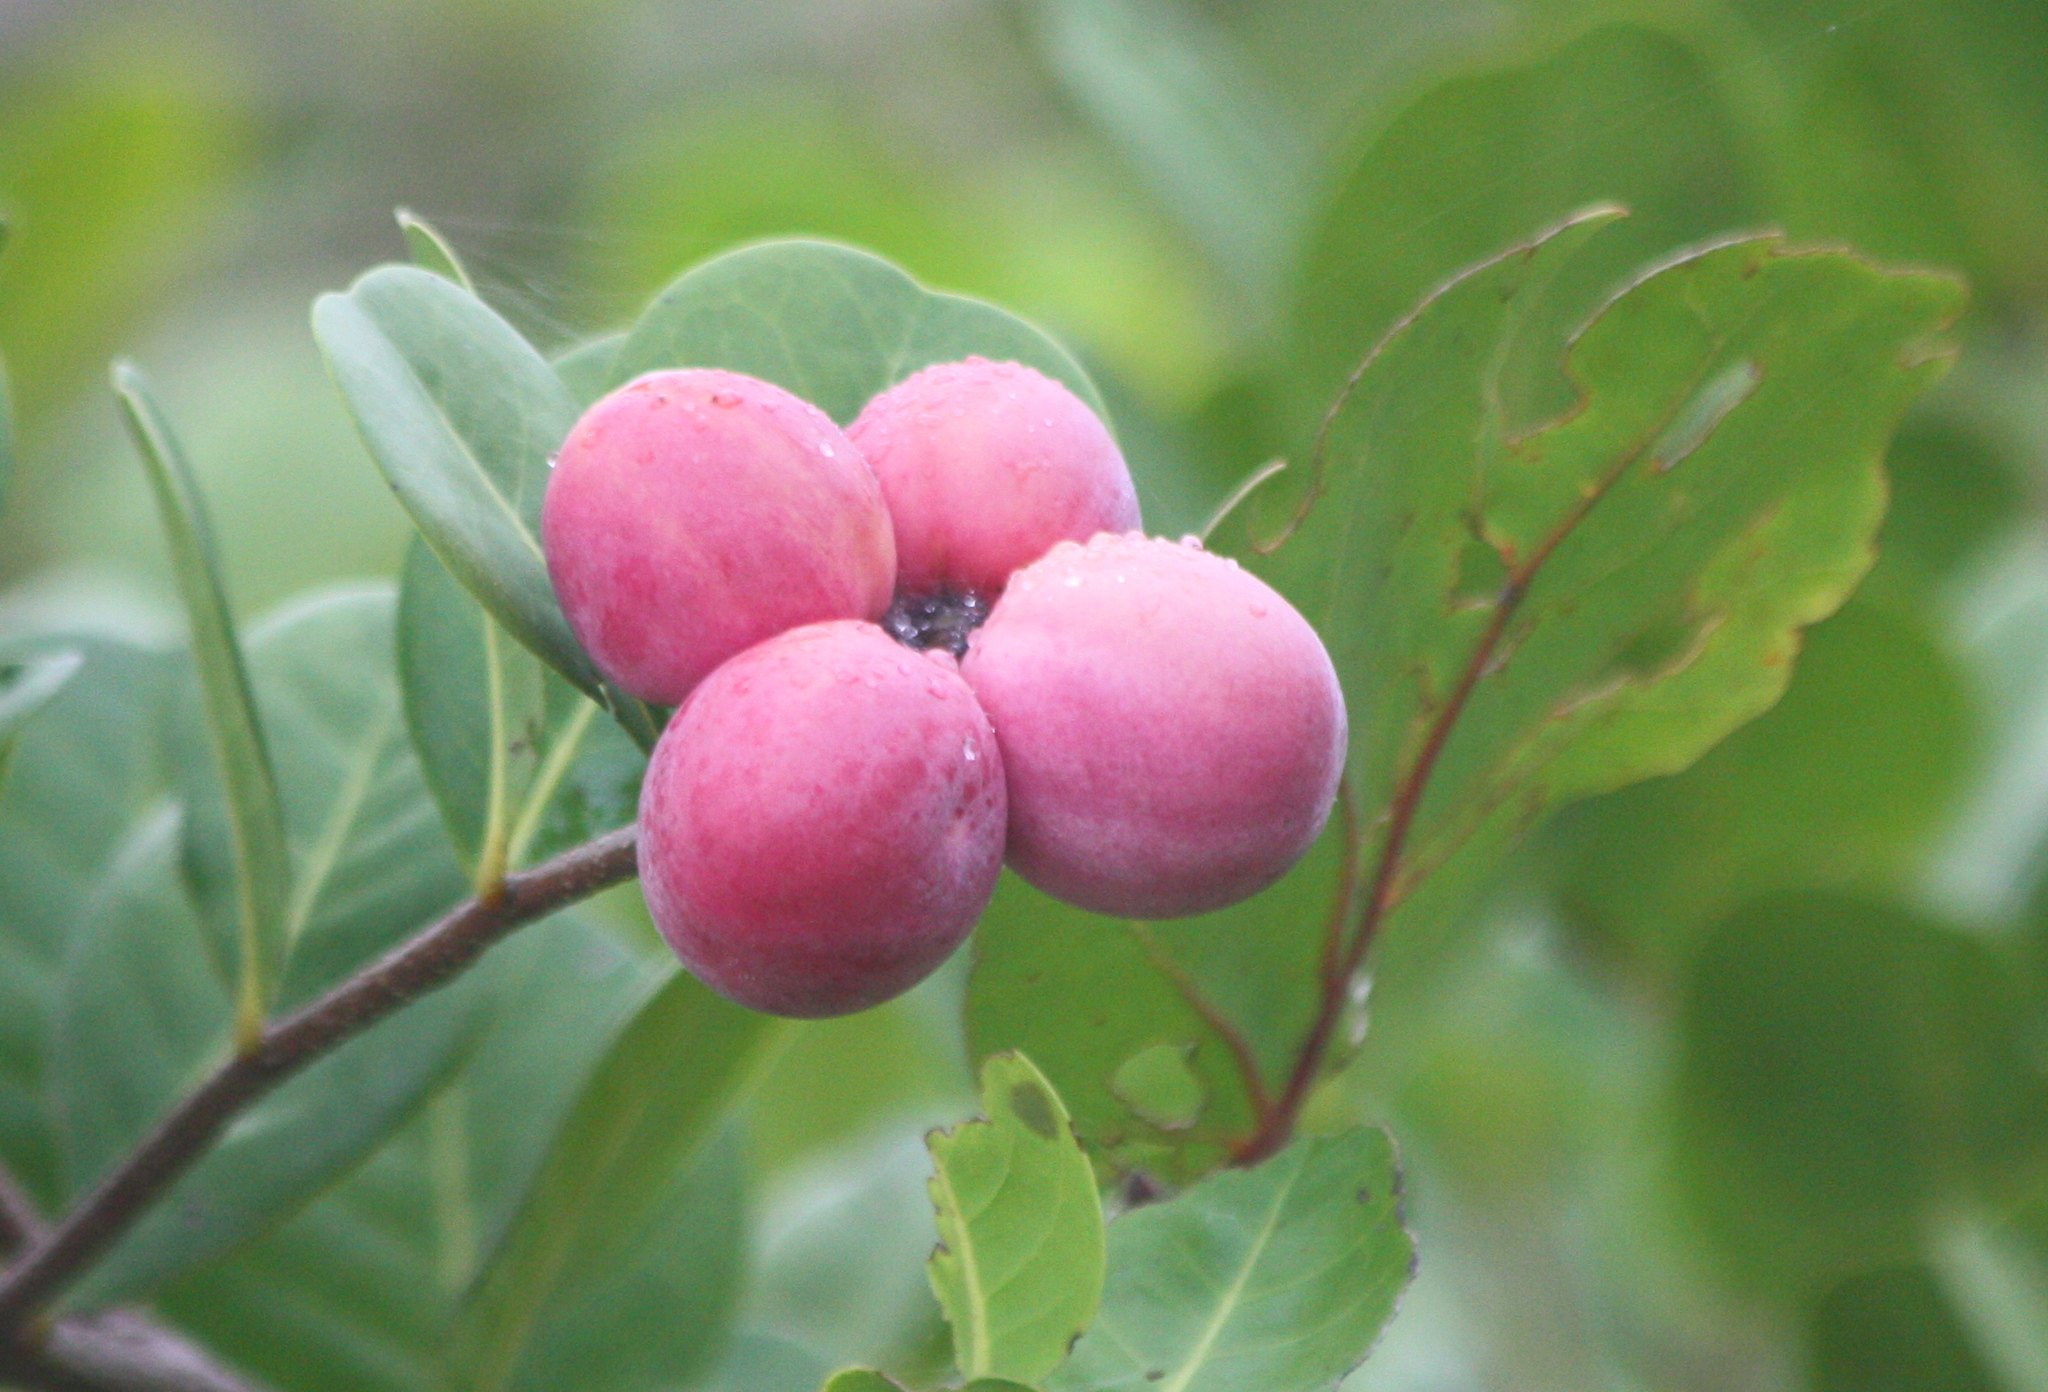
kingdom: Plantae
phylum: Tracheophyta
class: Magnoliopsida
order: Malpighiales
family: Chrysobalanaceae
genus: Chrysobalanus
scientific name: Chrysobalanus icaco
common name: Coco plum
